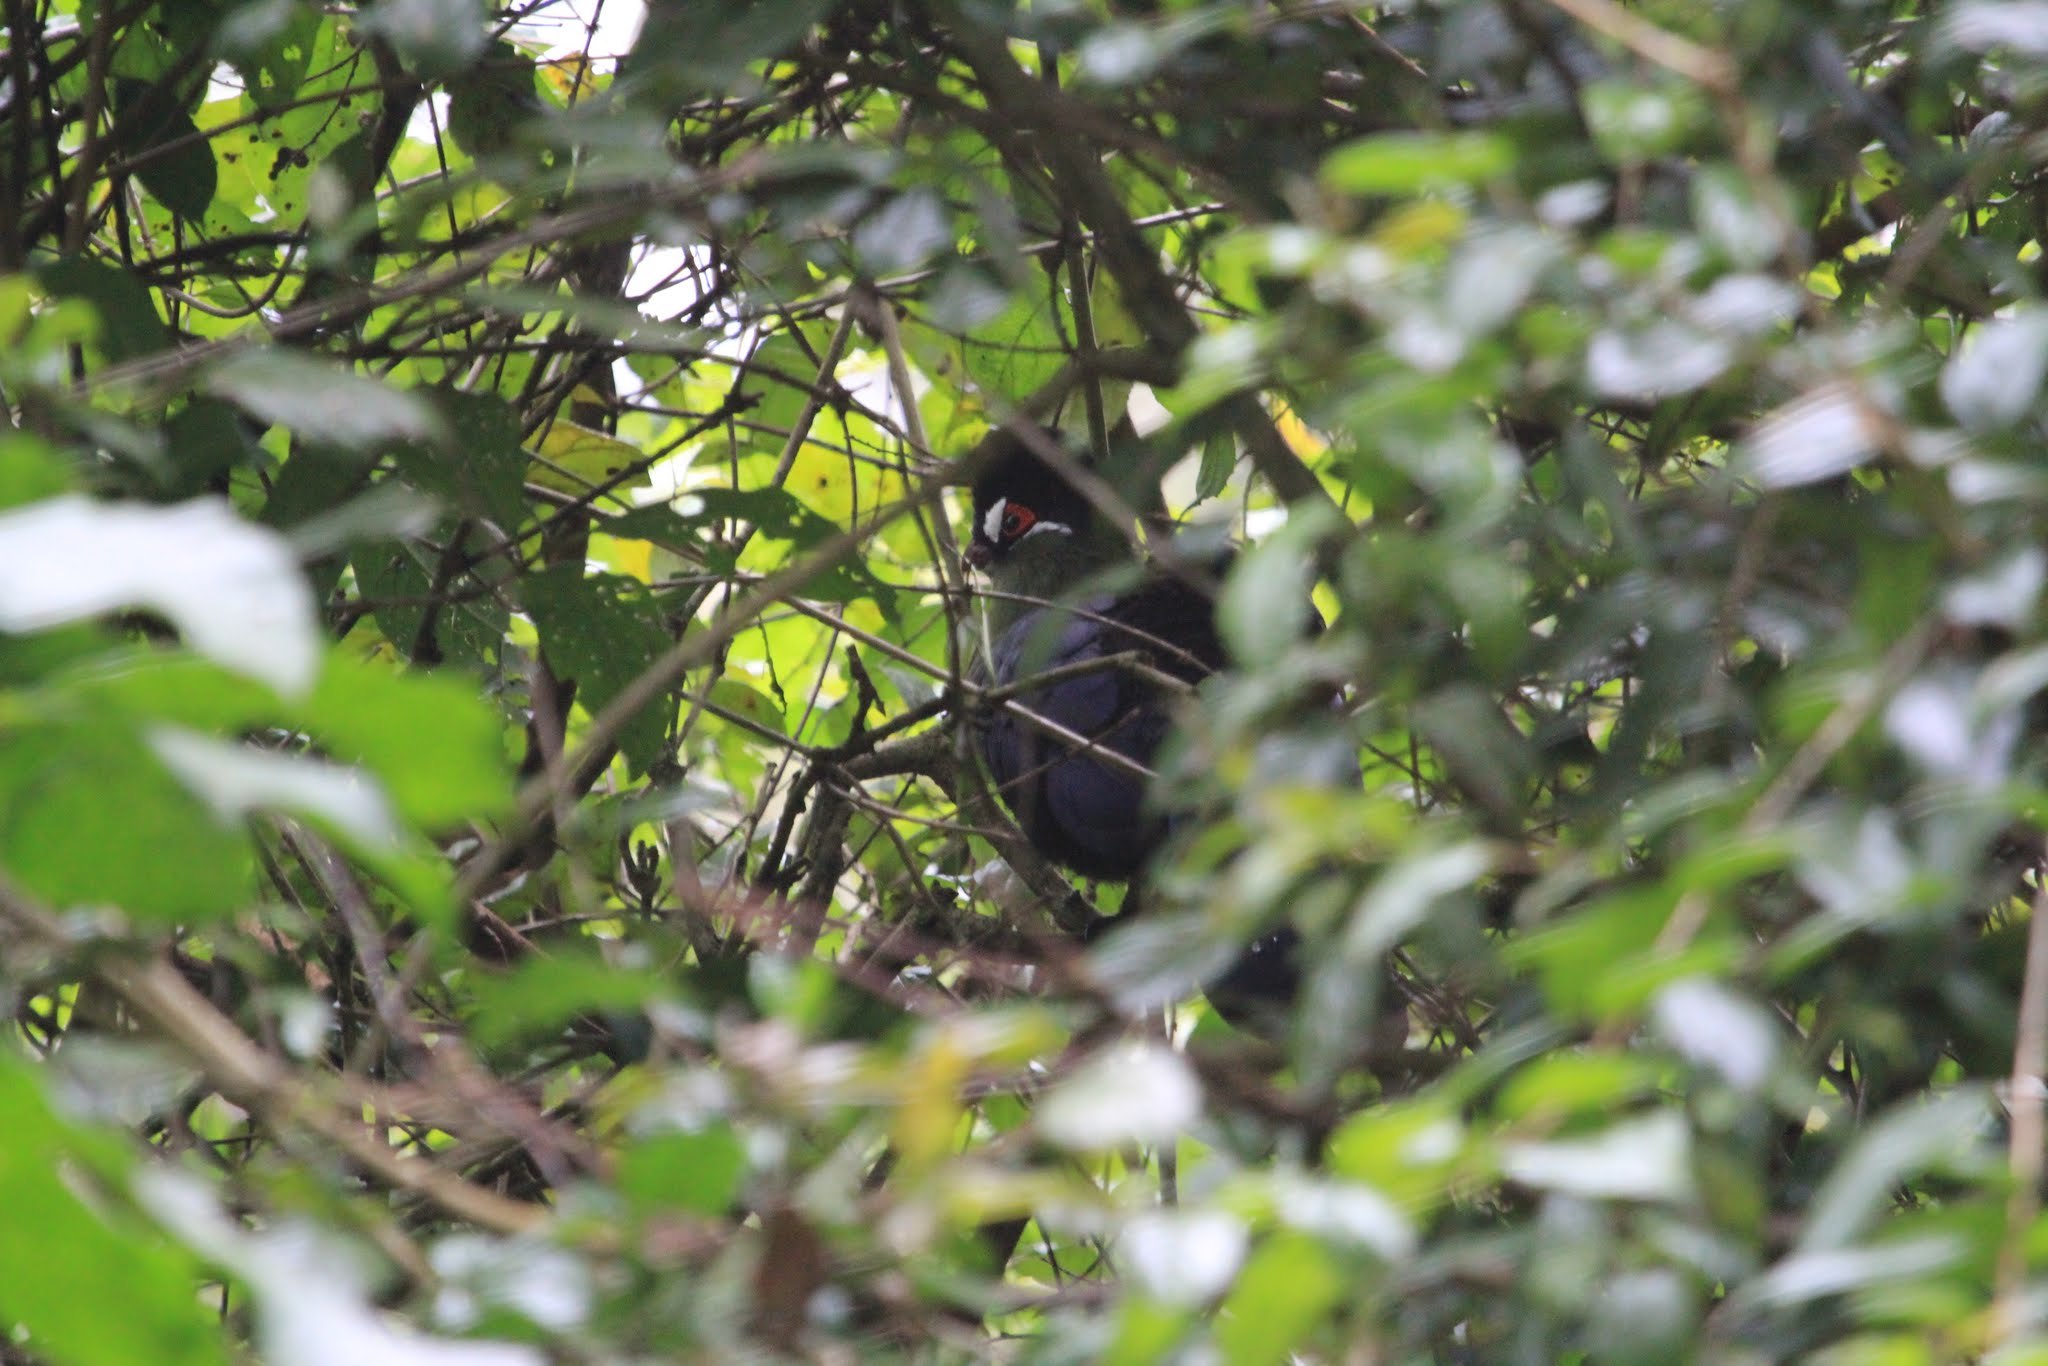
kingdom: Animalia
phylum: Chordata
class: Aves
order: Musophagiformes
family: Musophagidae
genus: Tauraco
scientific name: Tauraco hartlaubi
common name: Hartlaub's turaco
